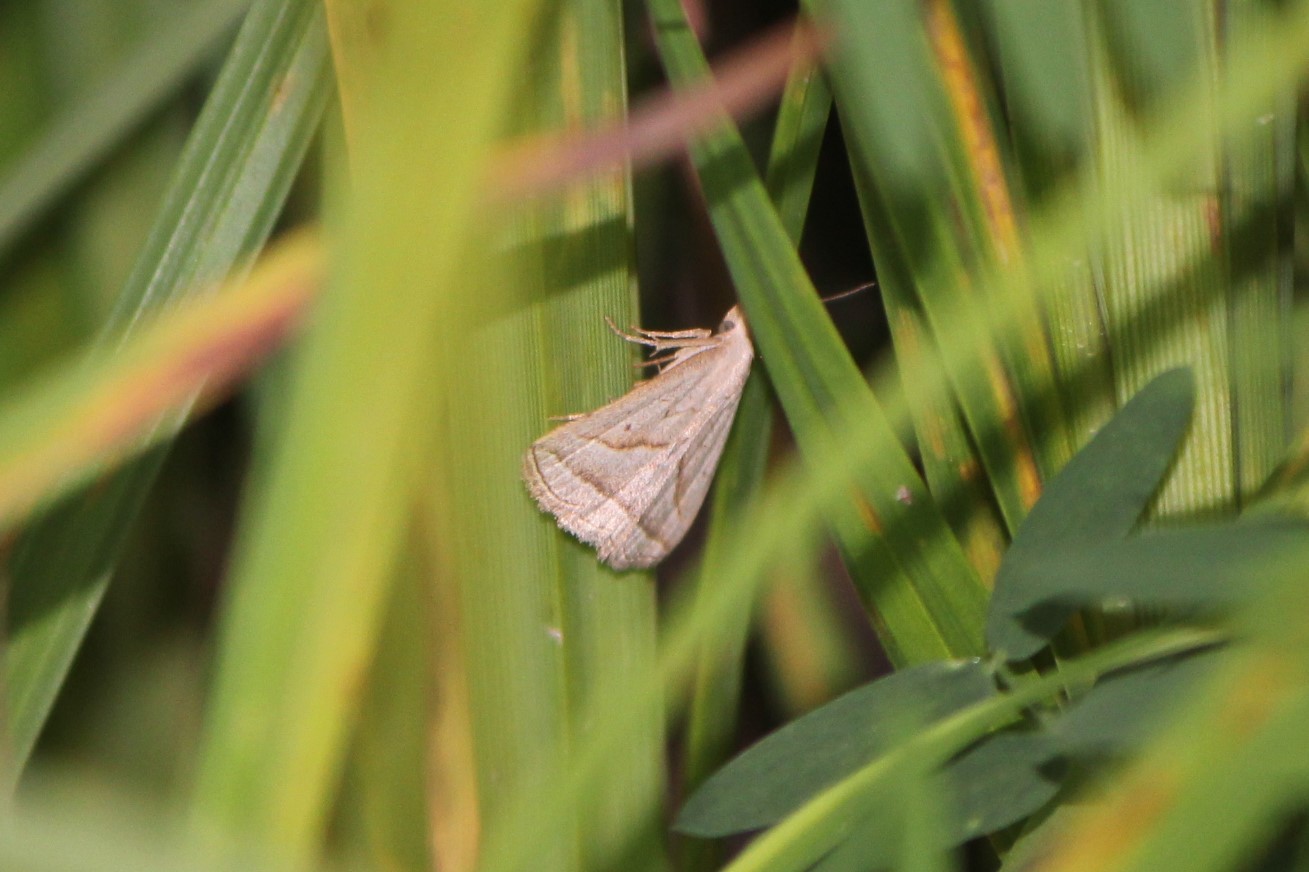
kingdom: Animalia
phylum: Arthropoda
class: Insecta
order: Lepidoptera
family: Erebidae
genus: Macrochilo
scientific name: Macrochilo absorptalis
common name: Slant-lined owlet
